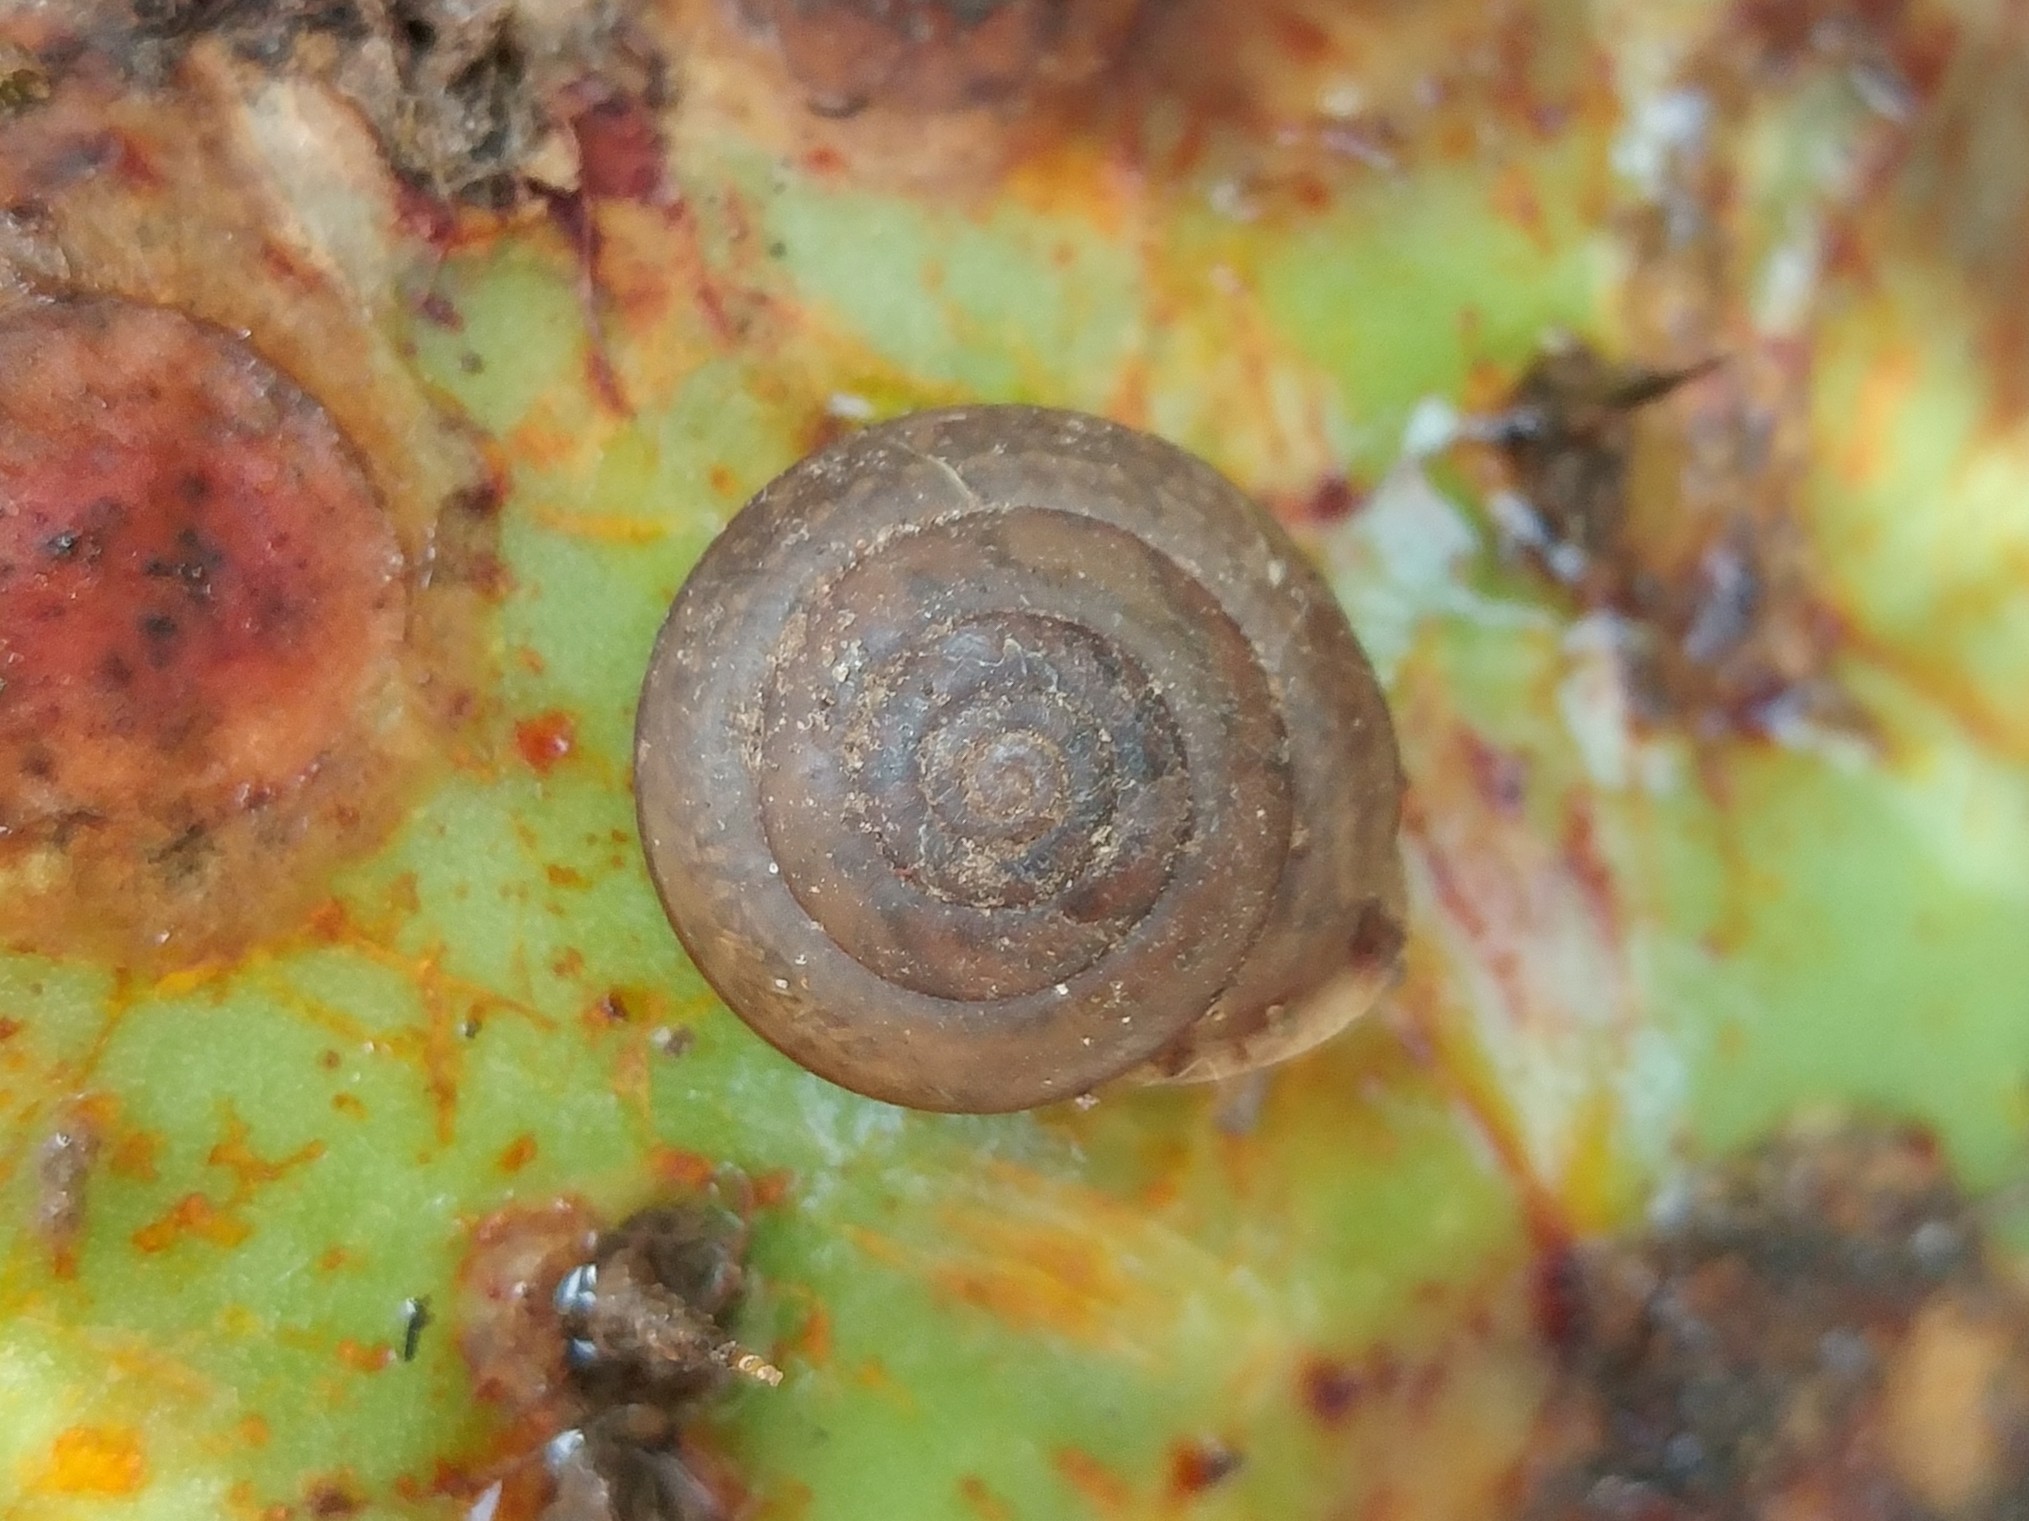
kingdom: Animalia
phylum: Mollusca
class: Gastropoda
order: Stylommatophora
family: Xanthonychidae
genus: Micrarionta
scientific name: Micrarionta gabbii
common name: Gabb's snail
